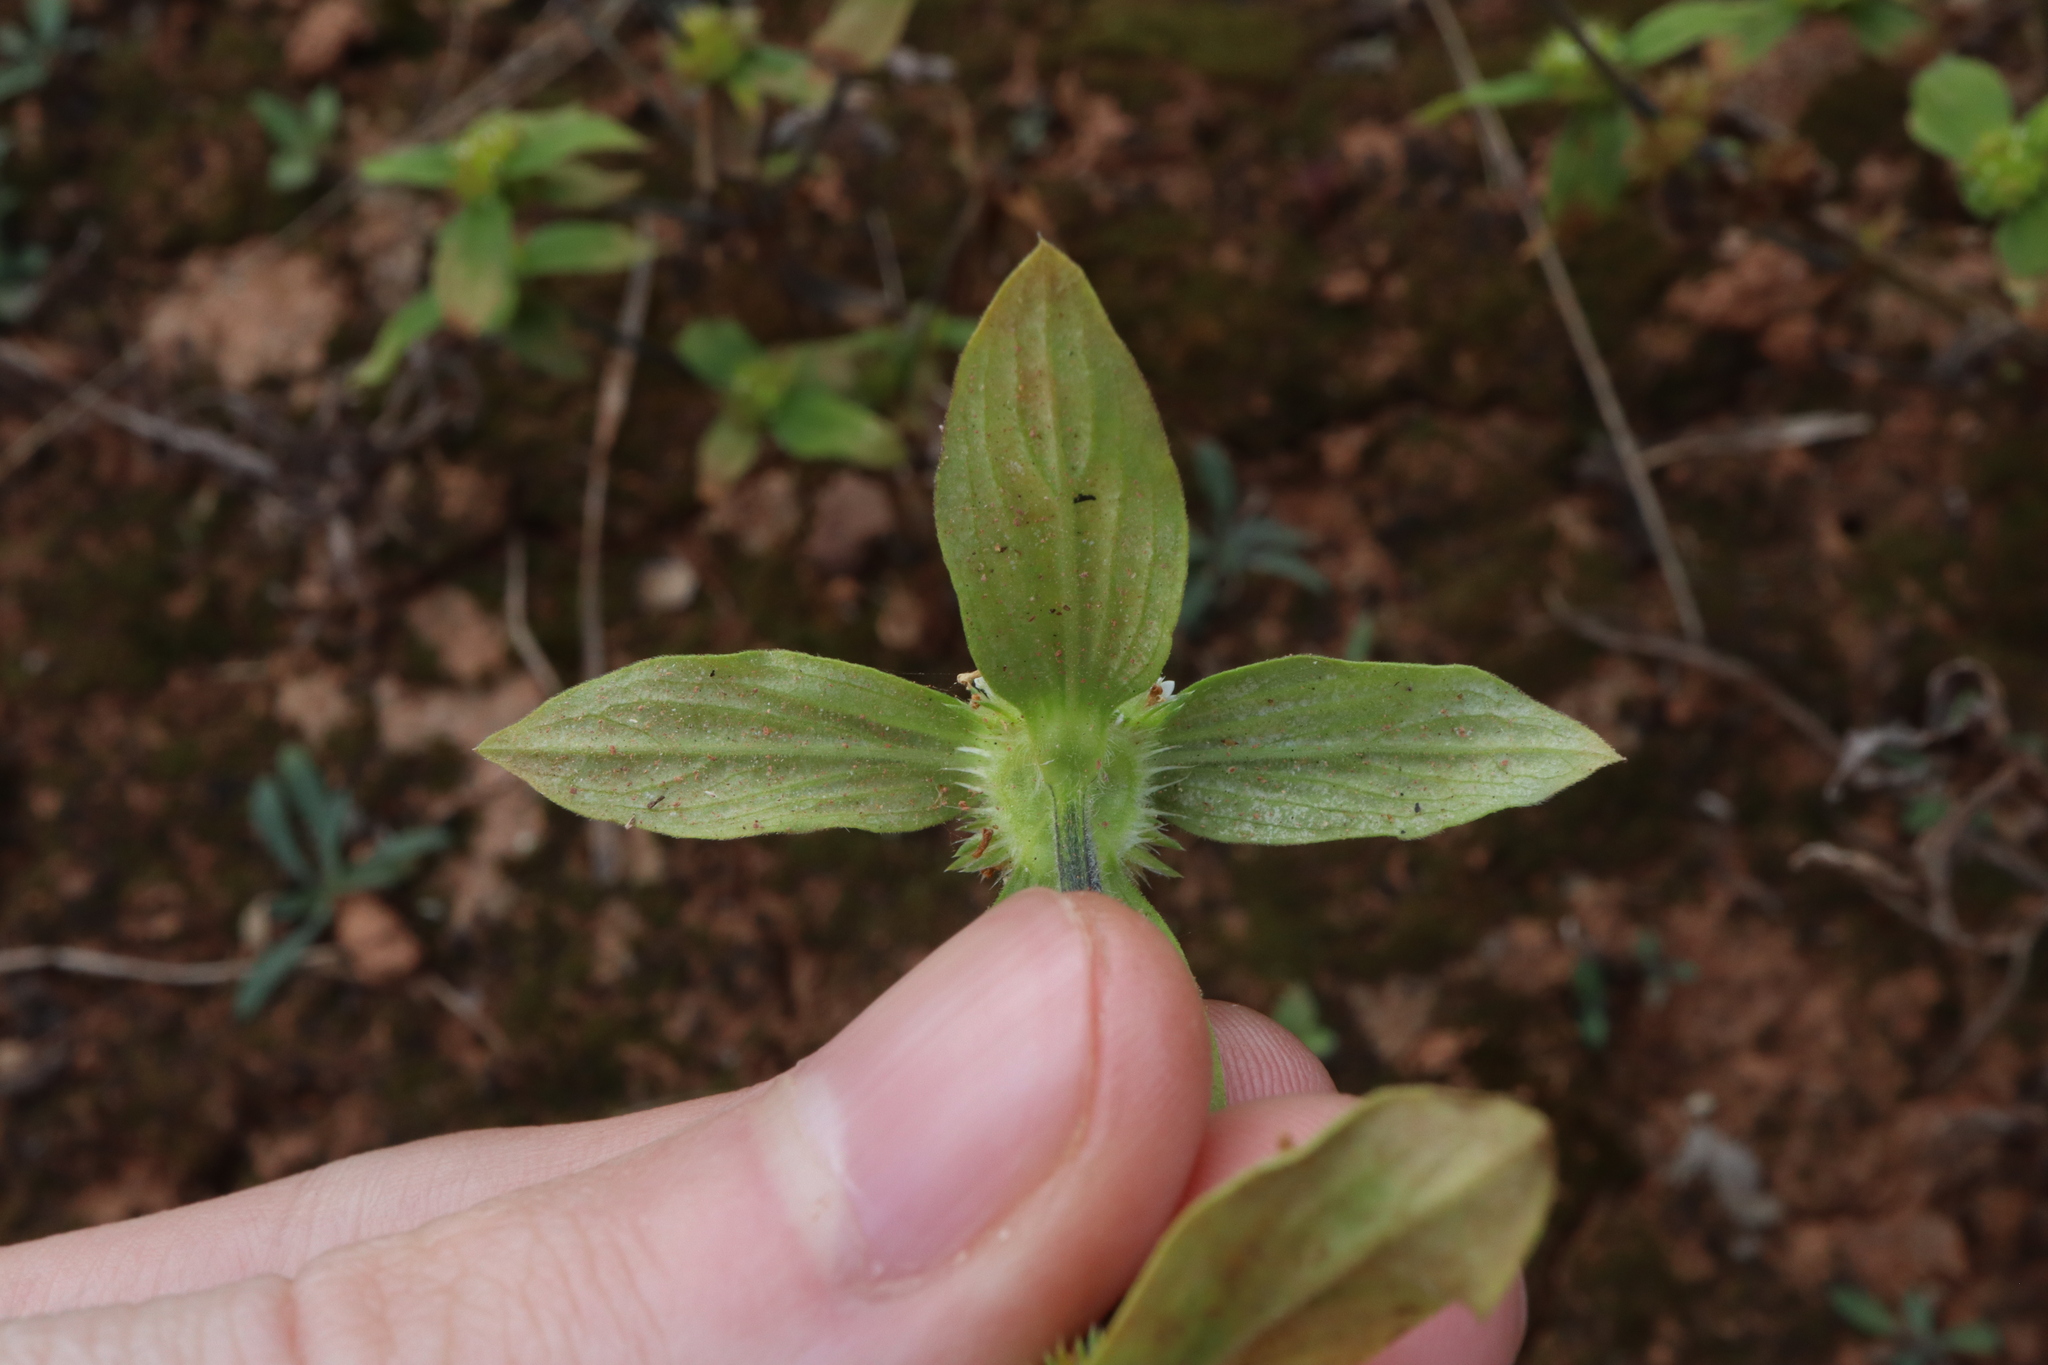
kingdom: Plantae
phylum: Tracheophyta
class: Magnoliopsida
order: Gentianales
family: Rubiaceae
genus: Mitracarpus
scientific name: Mitracarpus hirtus
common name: Tropical girdlepod
